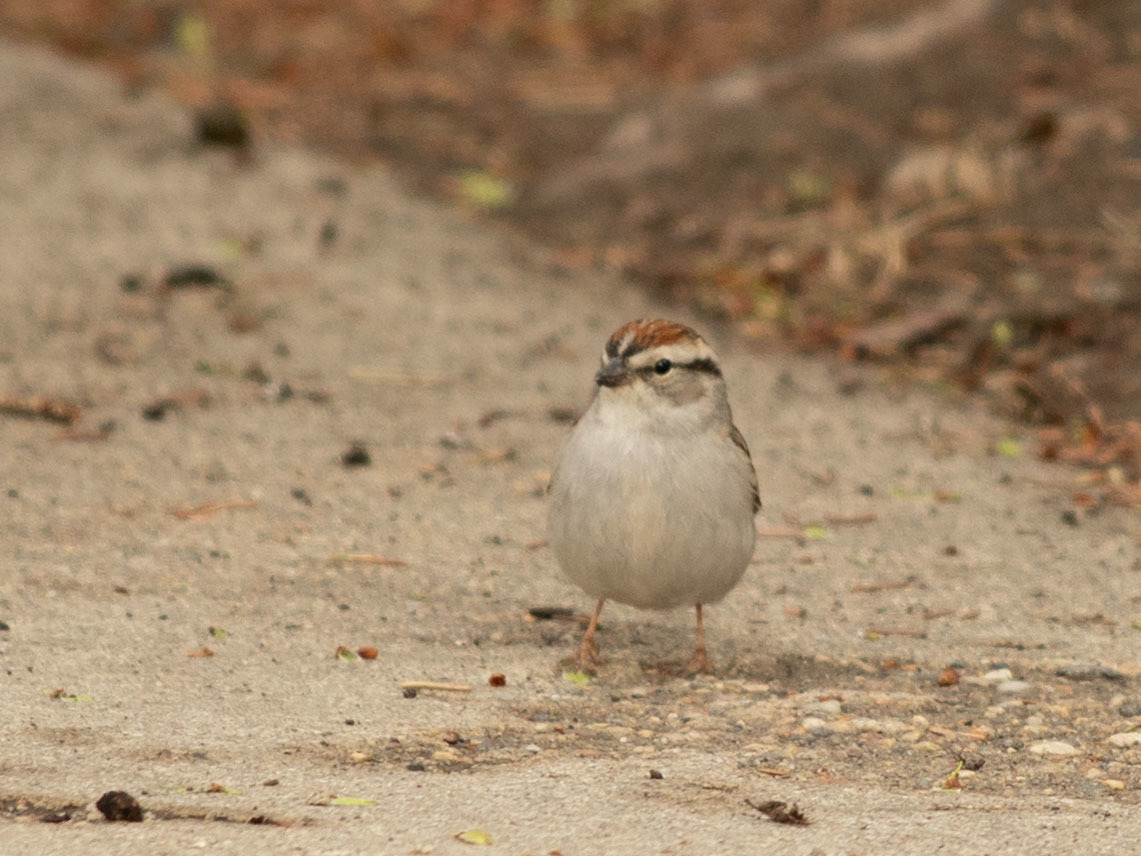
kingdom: Animalia
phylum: Chordata
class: Aves
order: Passeriformes
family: Passerellidae
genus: Spizella
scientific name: Spizella passerina
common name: Chipping sparrow
